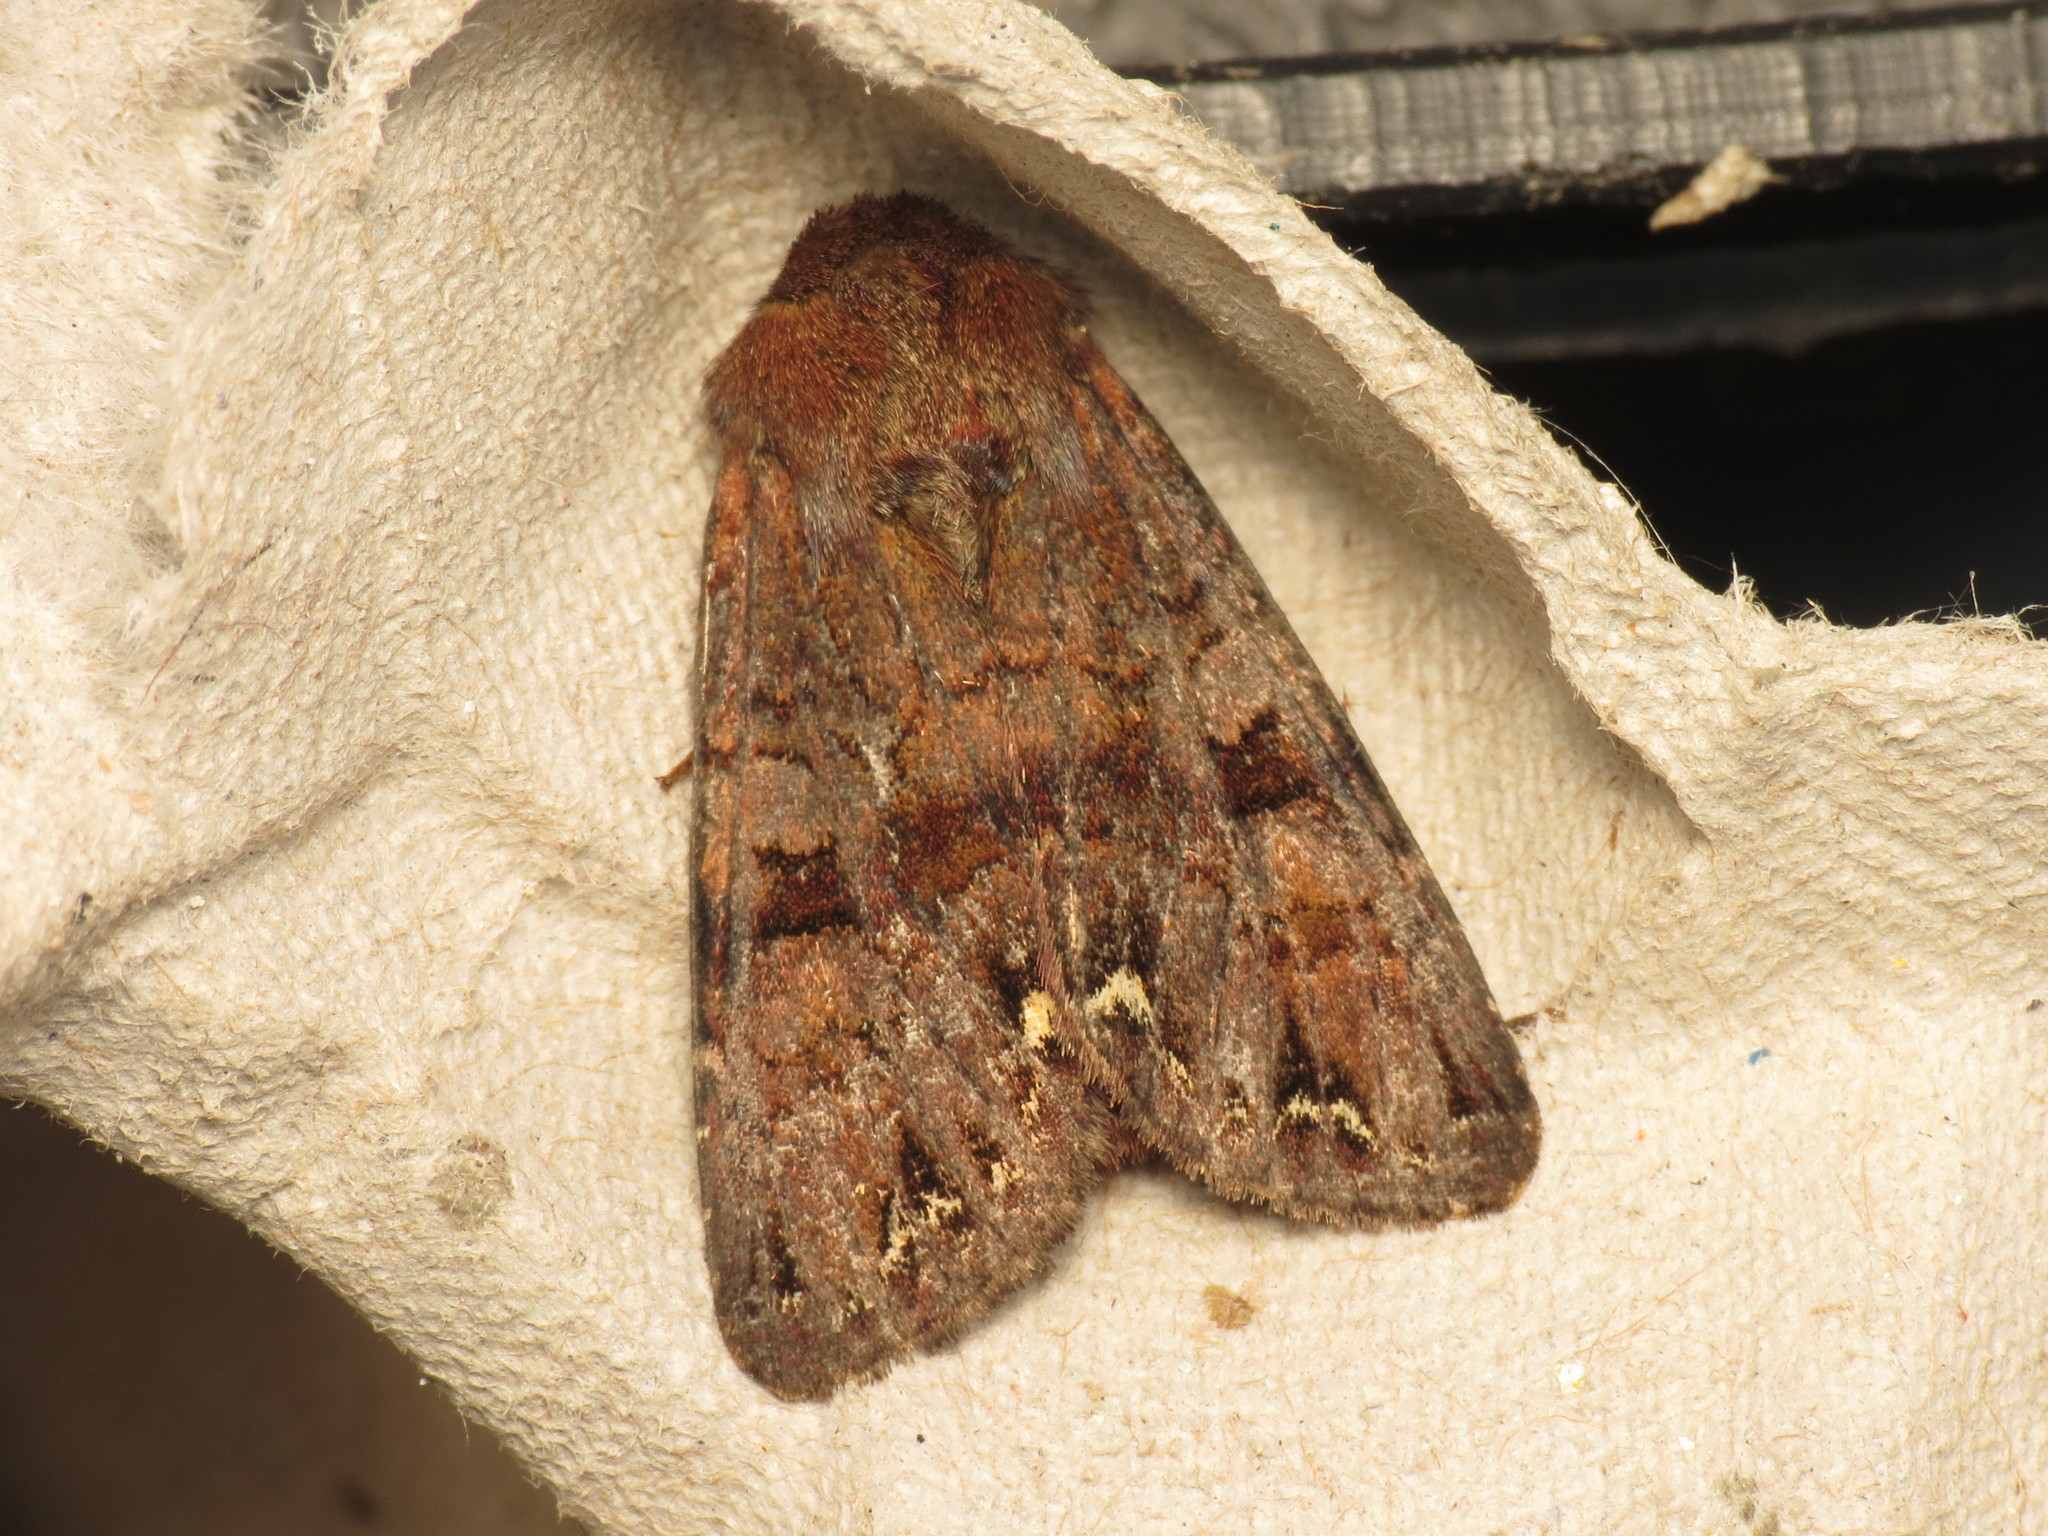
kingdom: Animalia
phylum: Arthropoda
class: Insecta
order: Lepidoptera
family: Noctuidae
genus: Ceramica
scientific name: Ceramica pisi
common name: Broom moth
